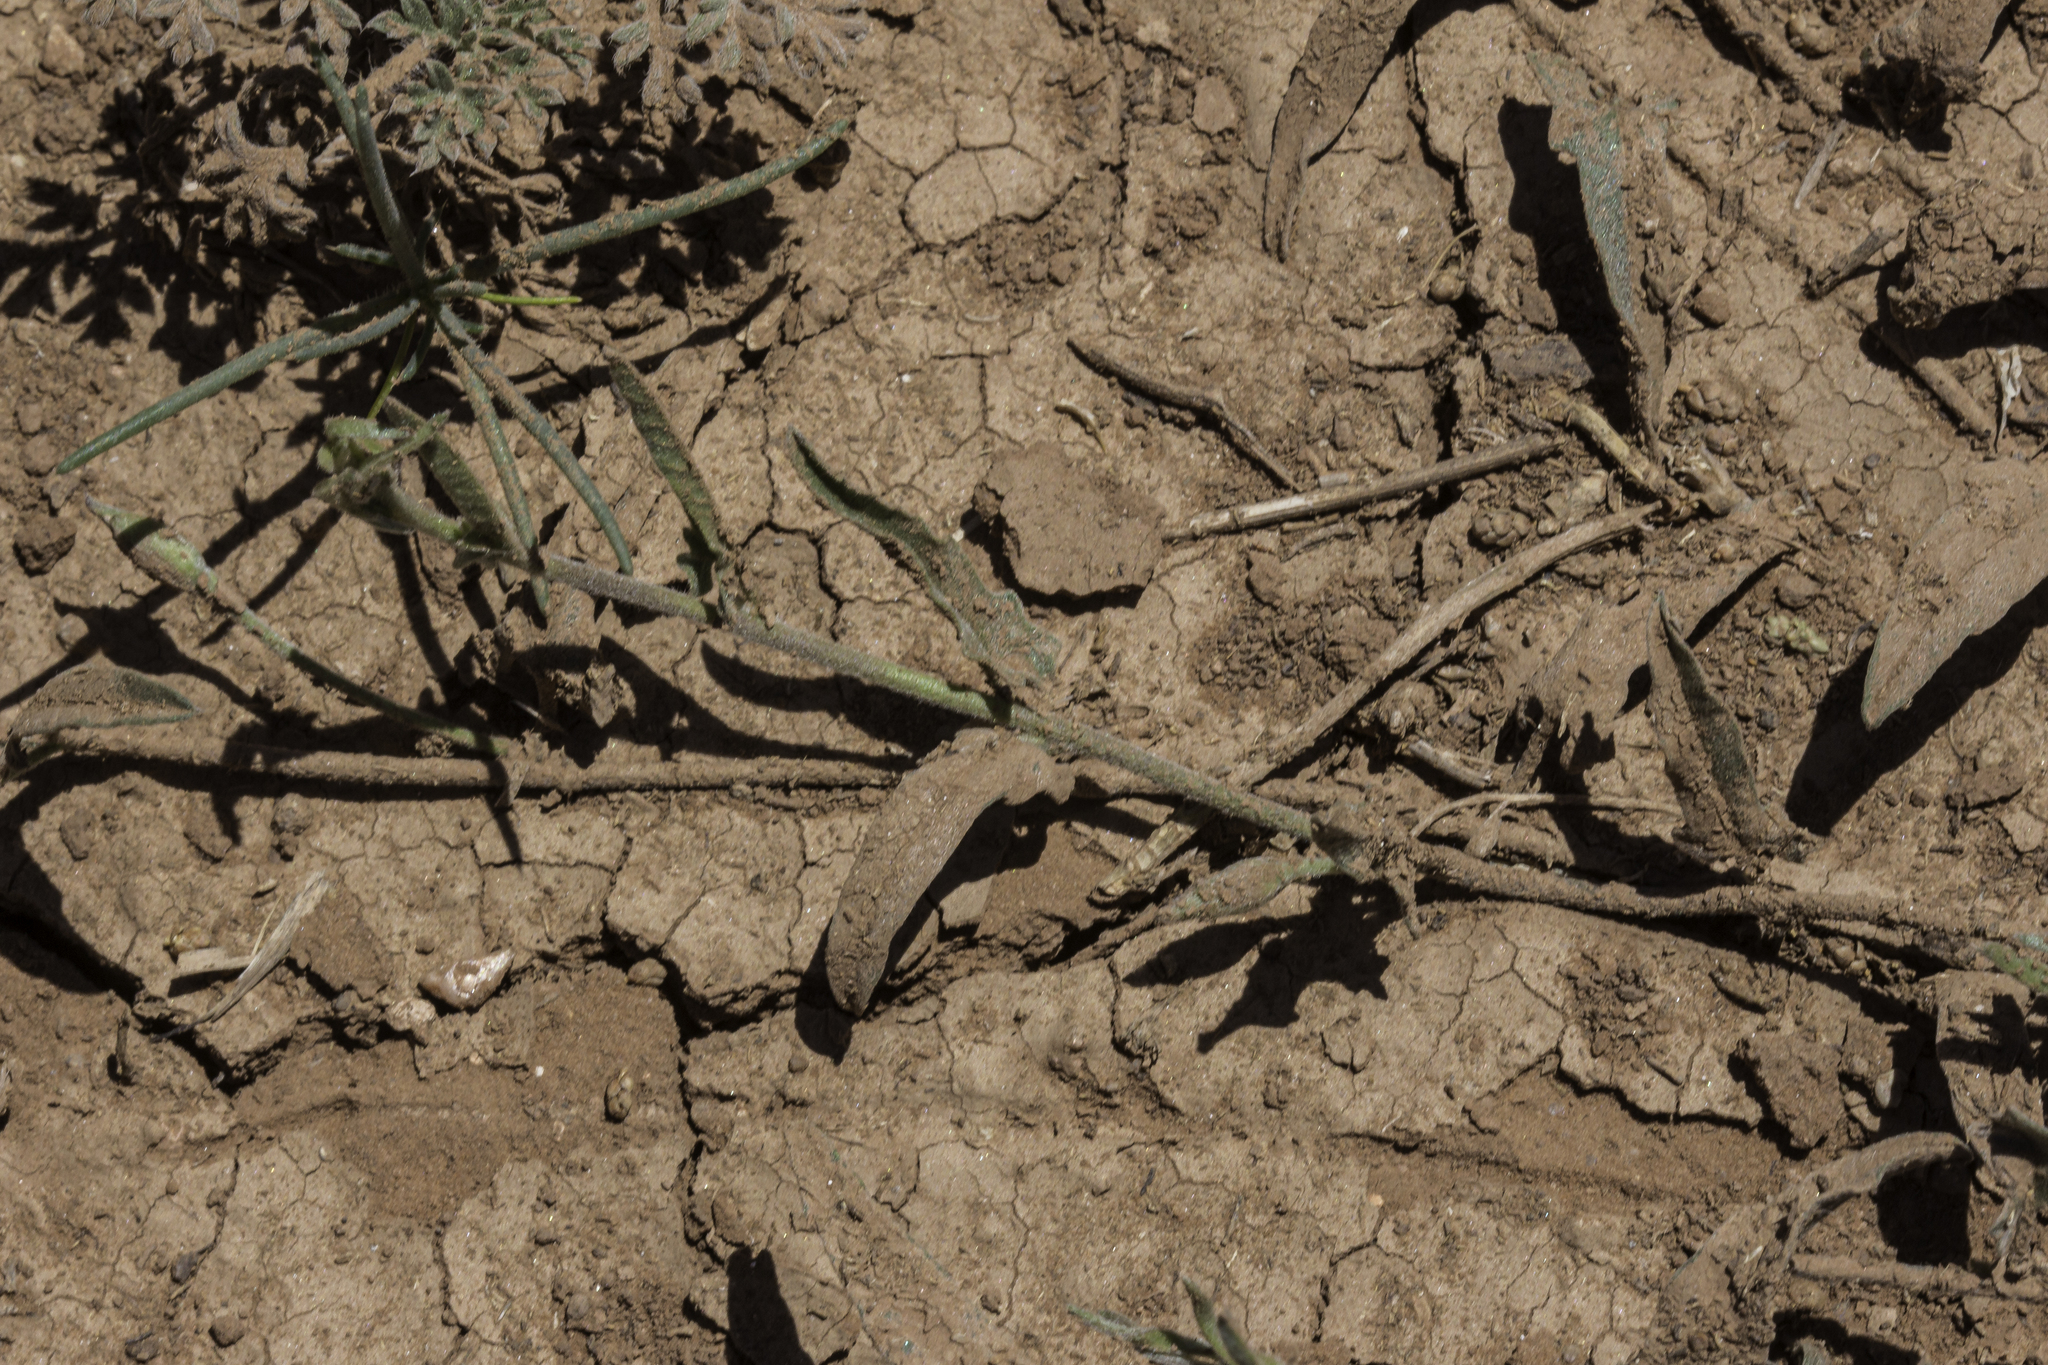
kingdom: Plantae
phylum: Tracheophyta
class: Magnoliopsida
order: Solanales
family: Convolvulaceae
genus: Convolvulus
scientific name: Convolvulus equitans
